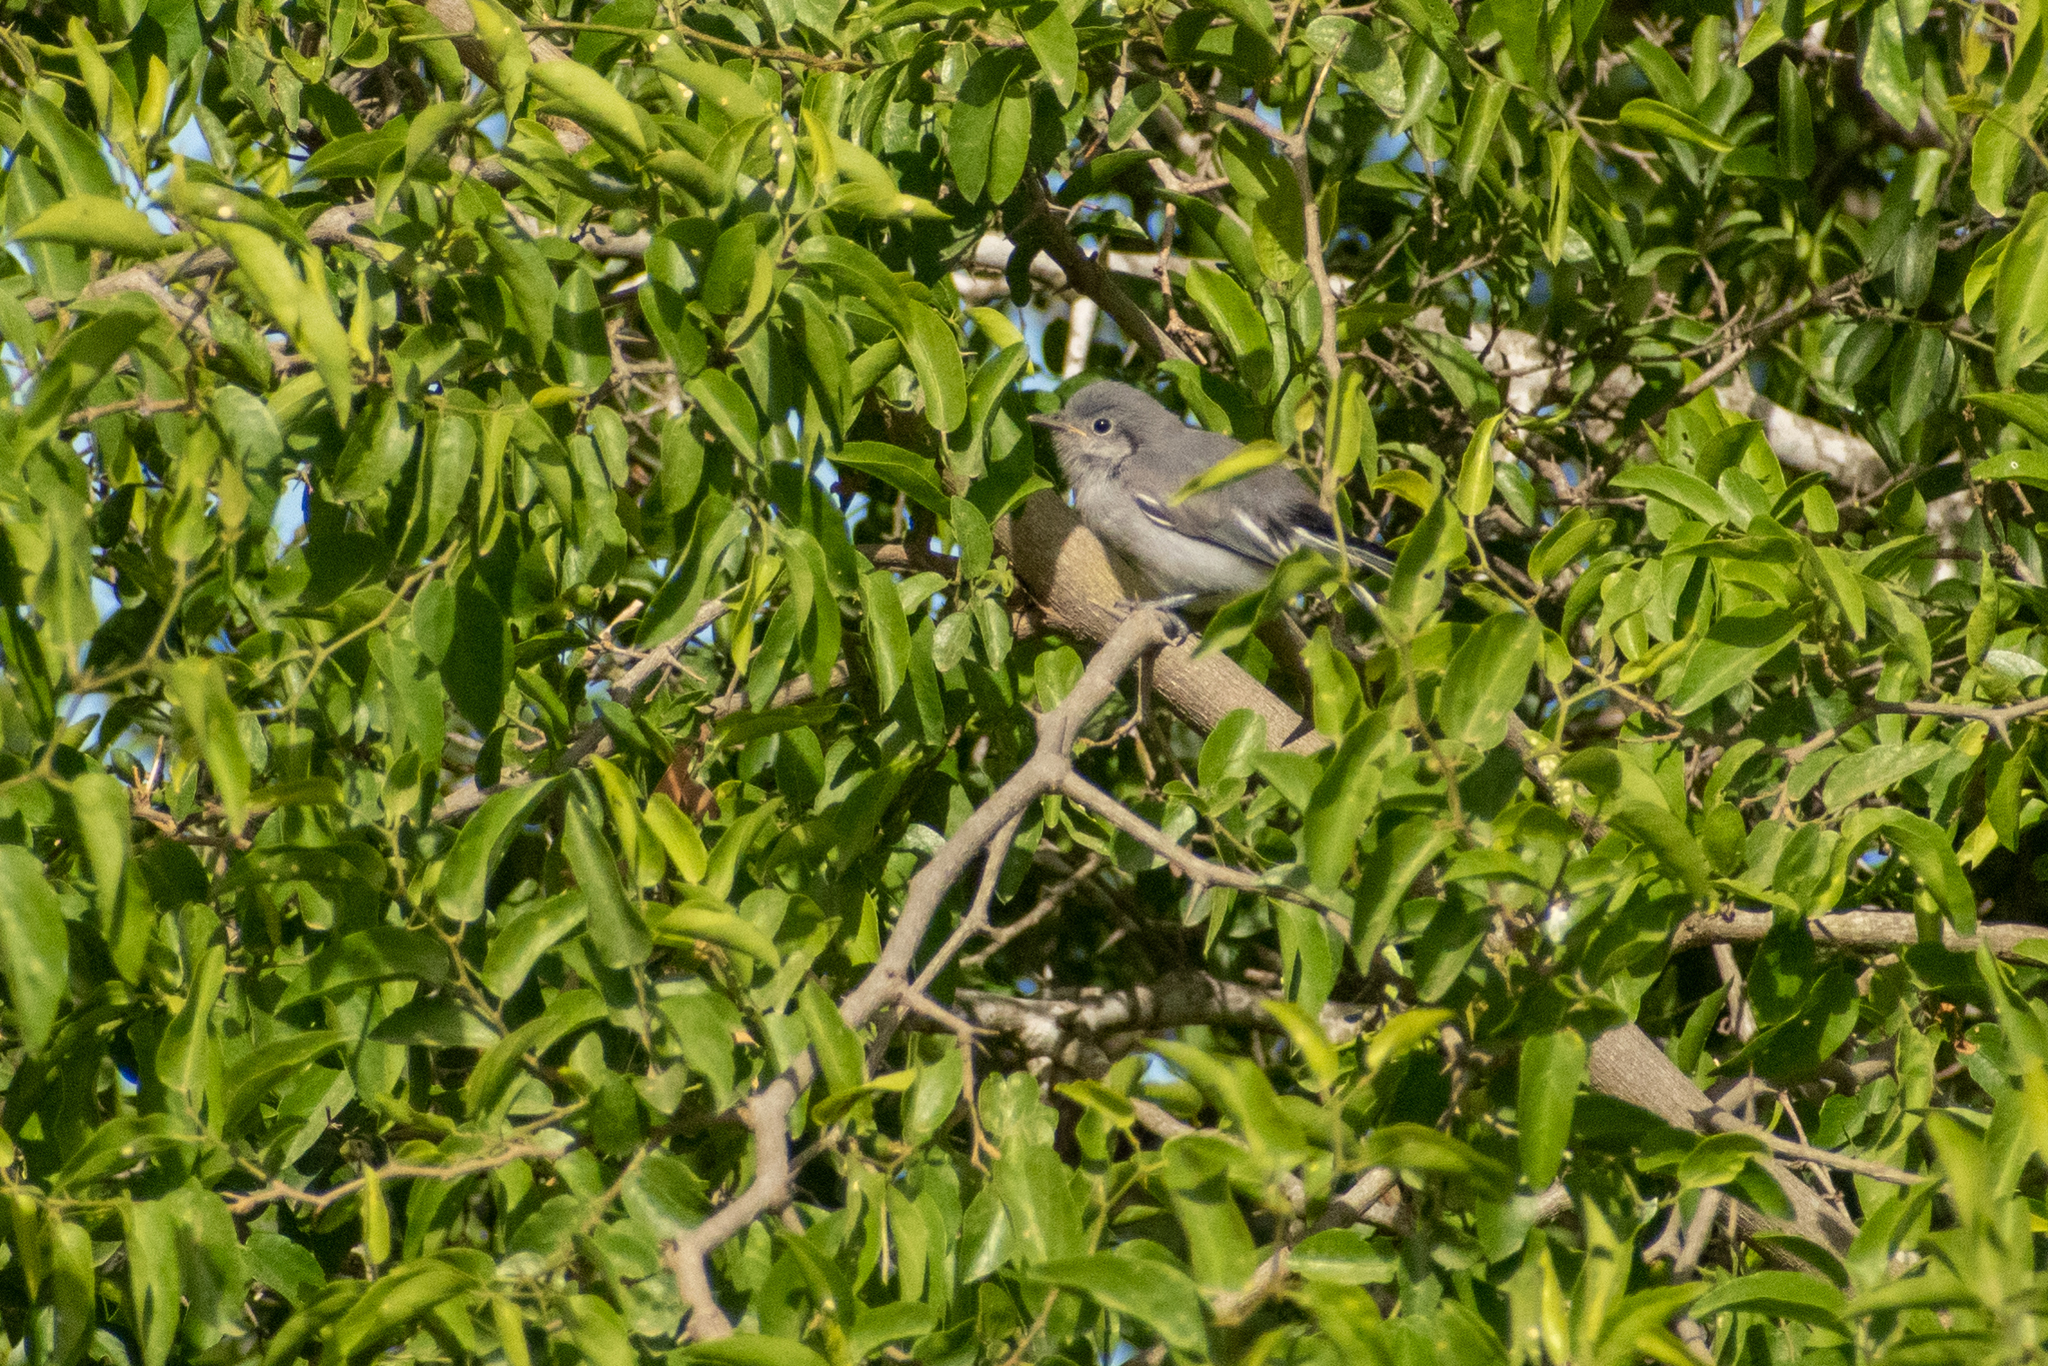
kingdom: Animalia
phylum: Chordata
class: Aves
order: Passeriformes
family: Polioptilidae
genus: Polioptila
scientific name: Polioptila dumicola
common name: Masked gnatcatcher
